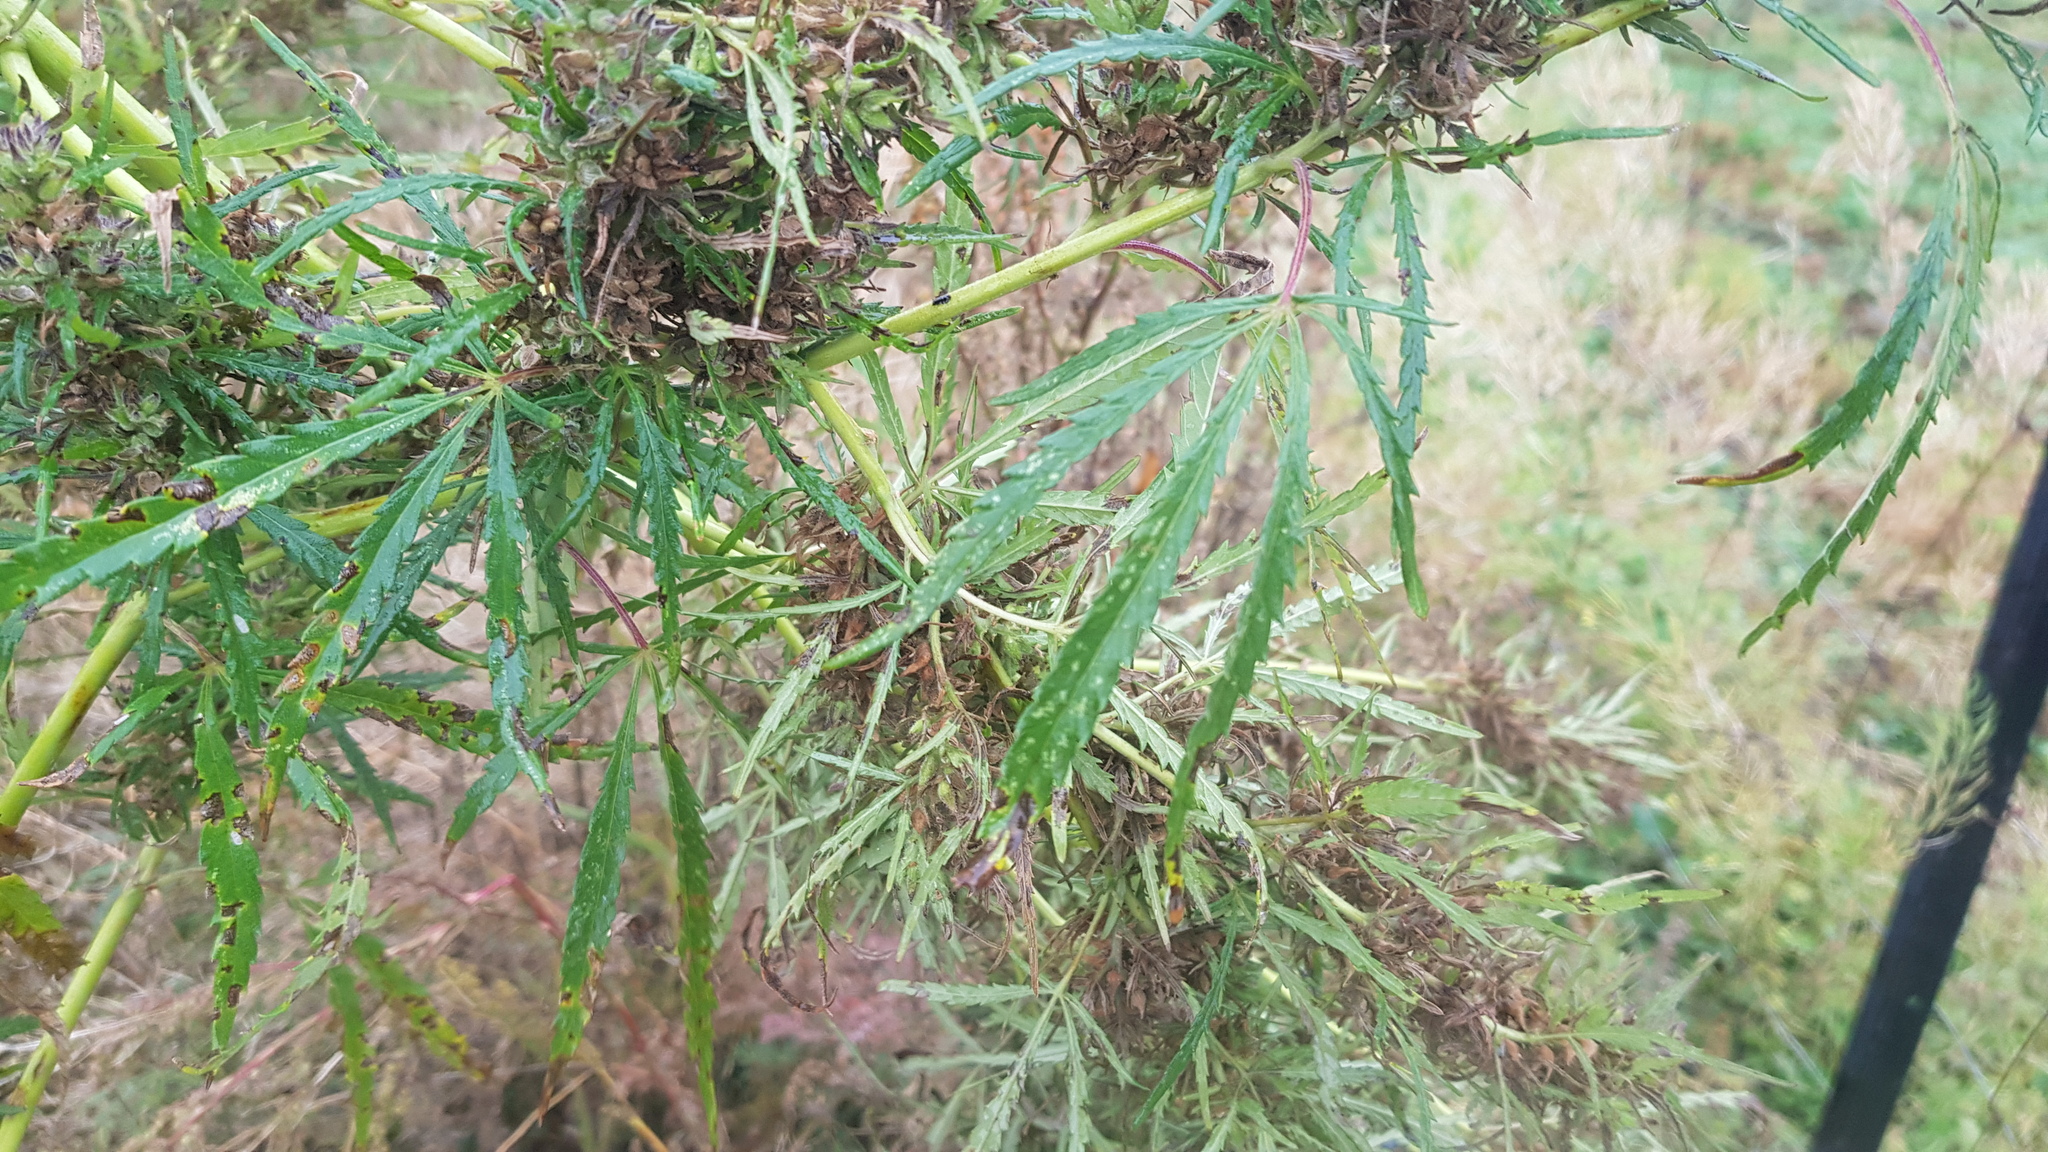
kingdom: Plantae
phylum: Tracheophyta
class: Magnoliopsida
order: Rosales
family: Cannabaceae
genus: Cannabis
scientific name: Cannabis sativa
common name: Hemp
